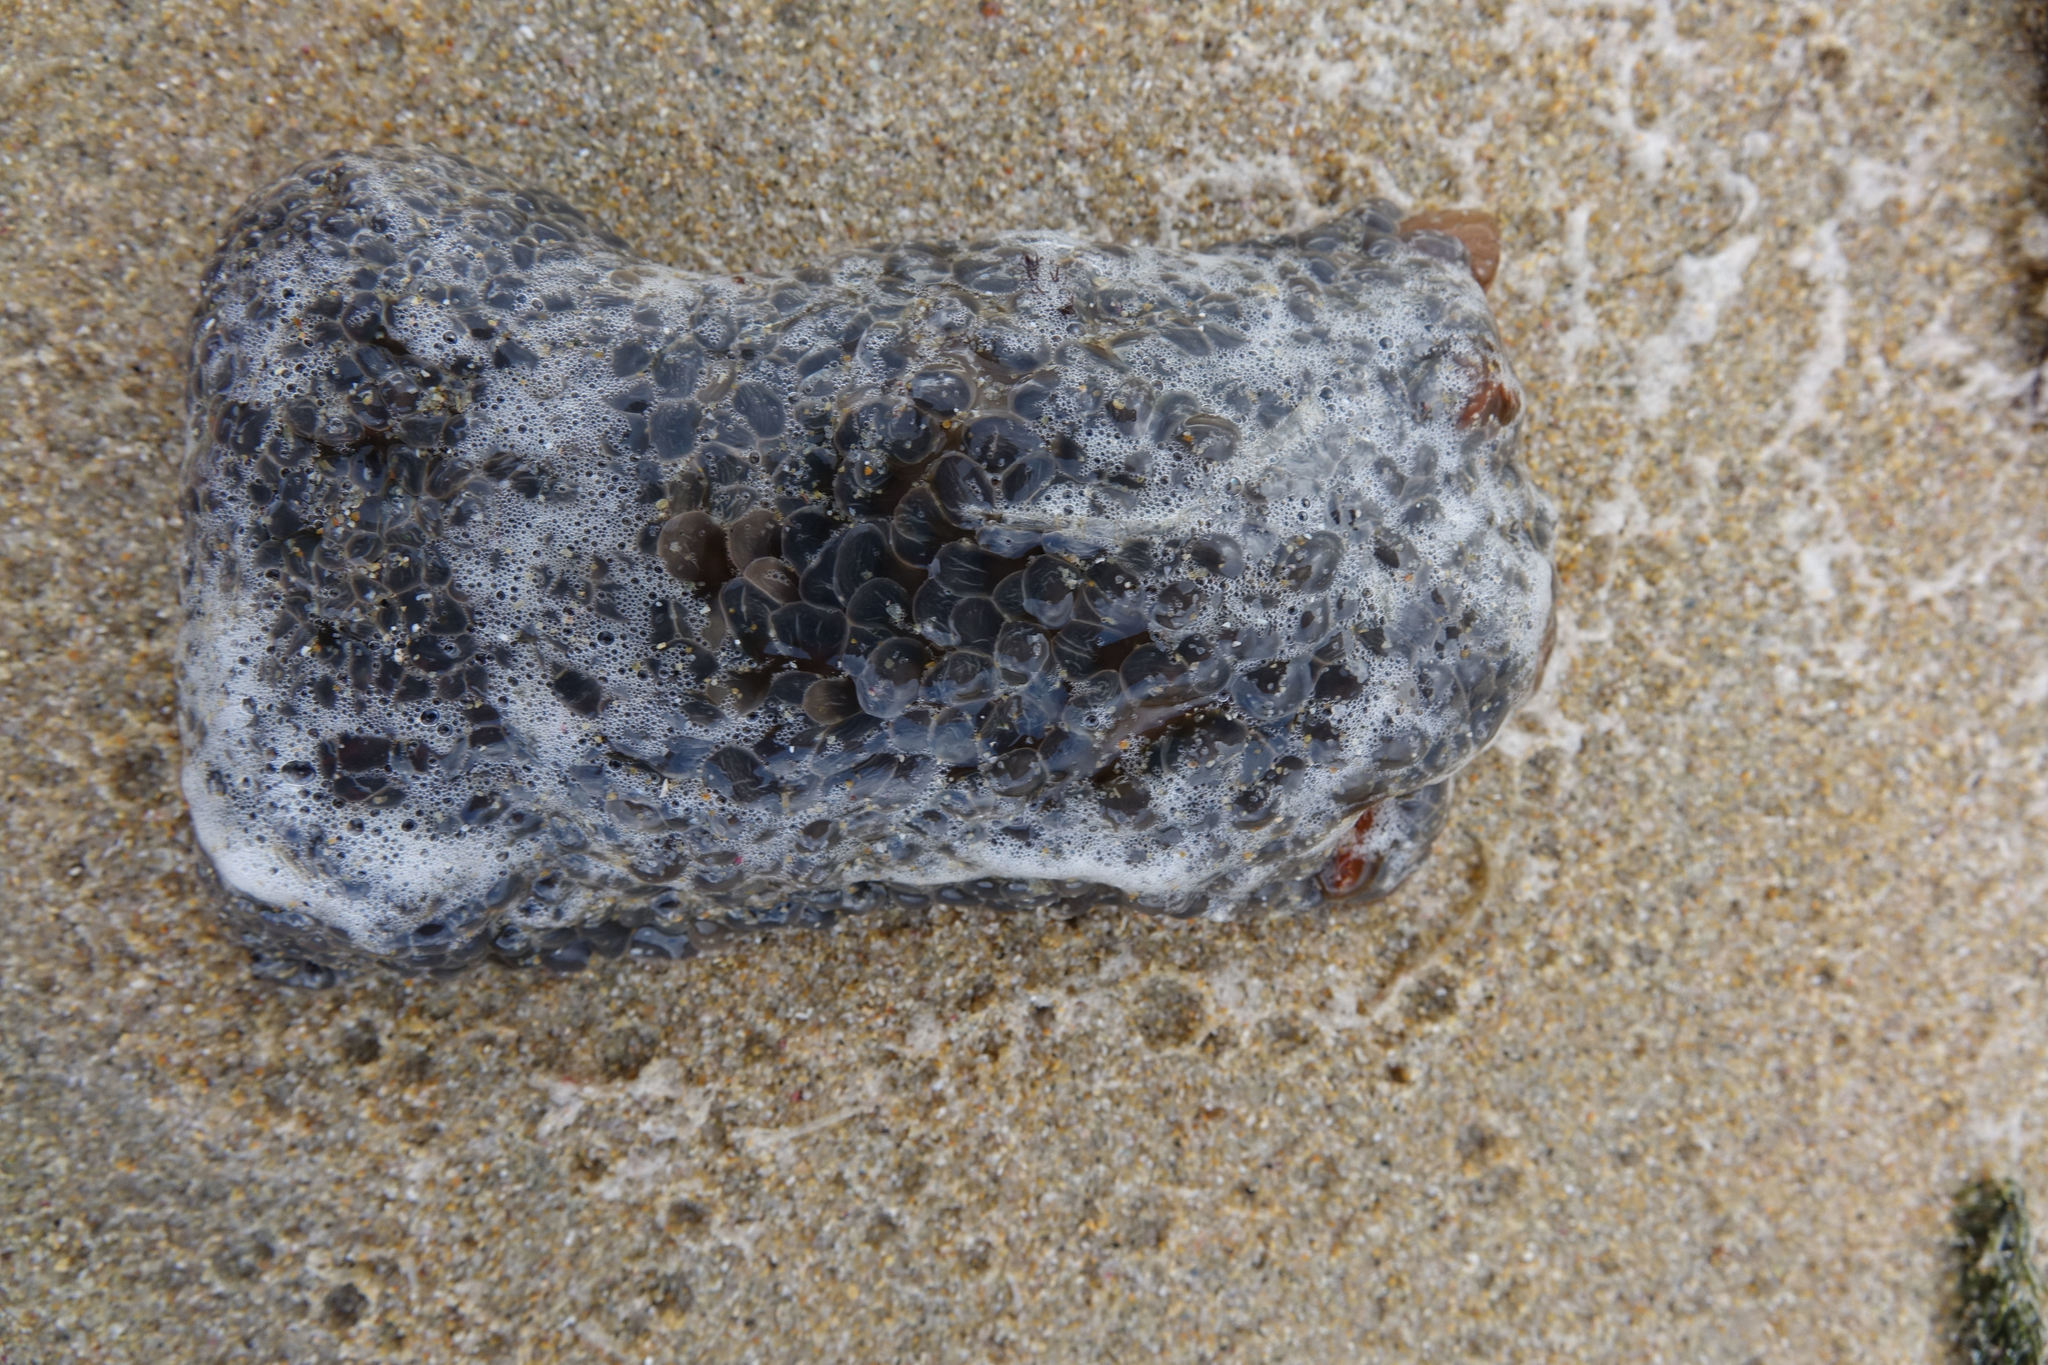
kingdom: Animalia
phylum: Cnidaria
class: Anthozoa
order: Actiniaria
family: Actiniidae
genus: Phlyctenactis
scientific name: Phlyctenactis tuberculosa
